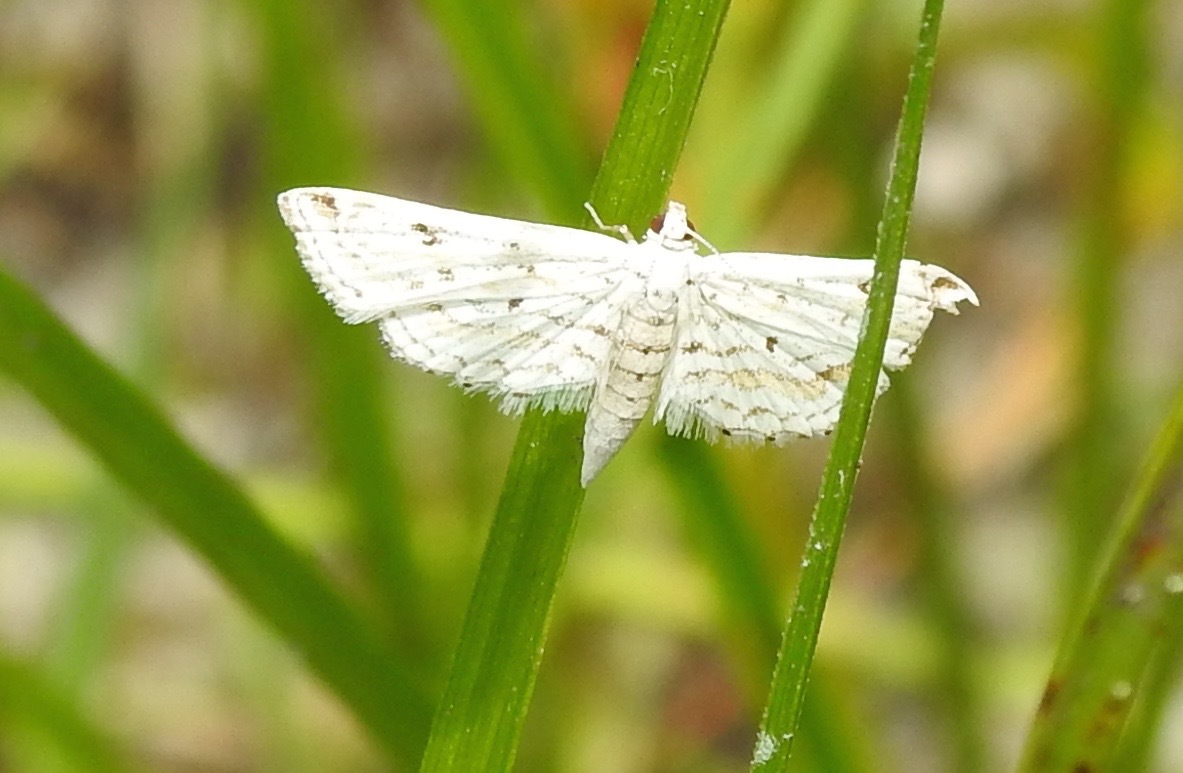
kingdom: Animalia
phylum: Arthropoda
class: Insecta
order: Lepidoptera
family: Crambidae
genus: Parapoynx
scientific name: Parapoynx allionealis
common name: Bladderwort casemaker
